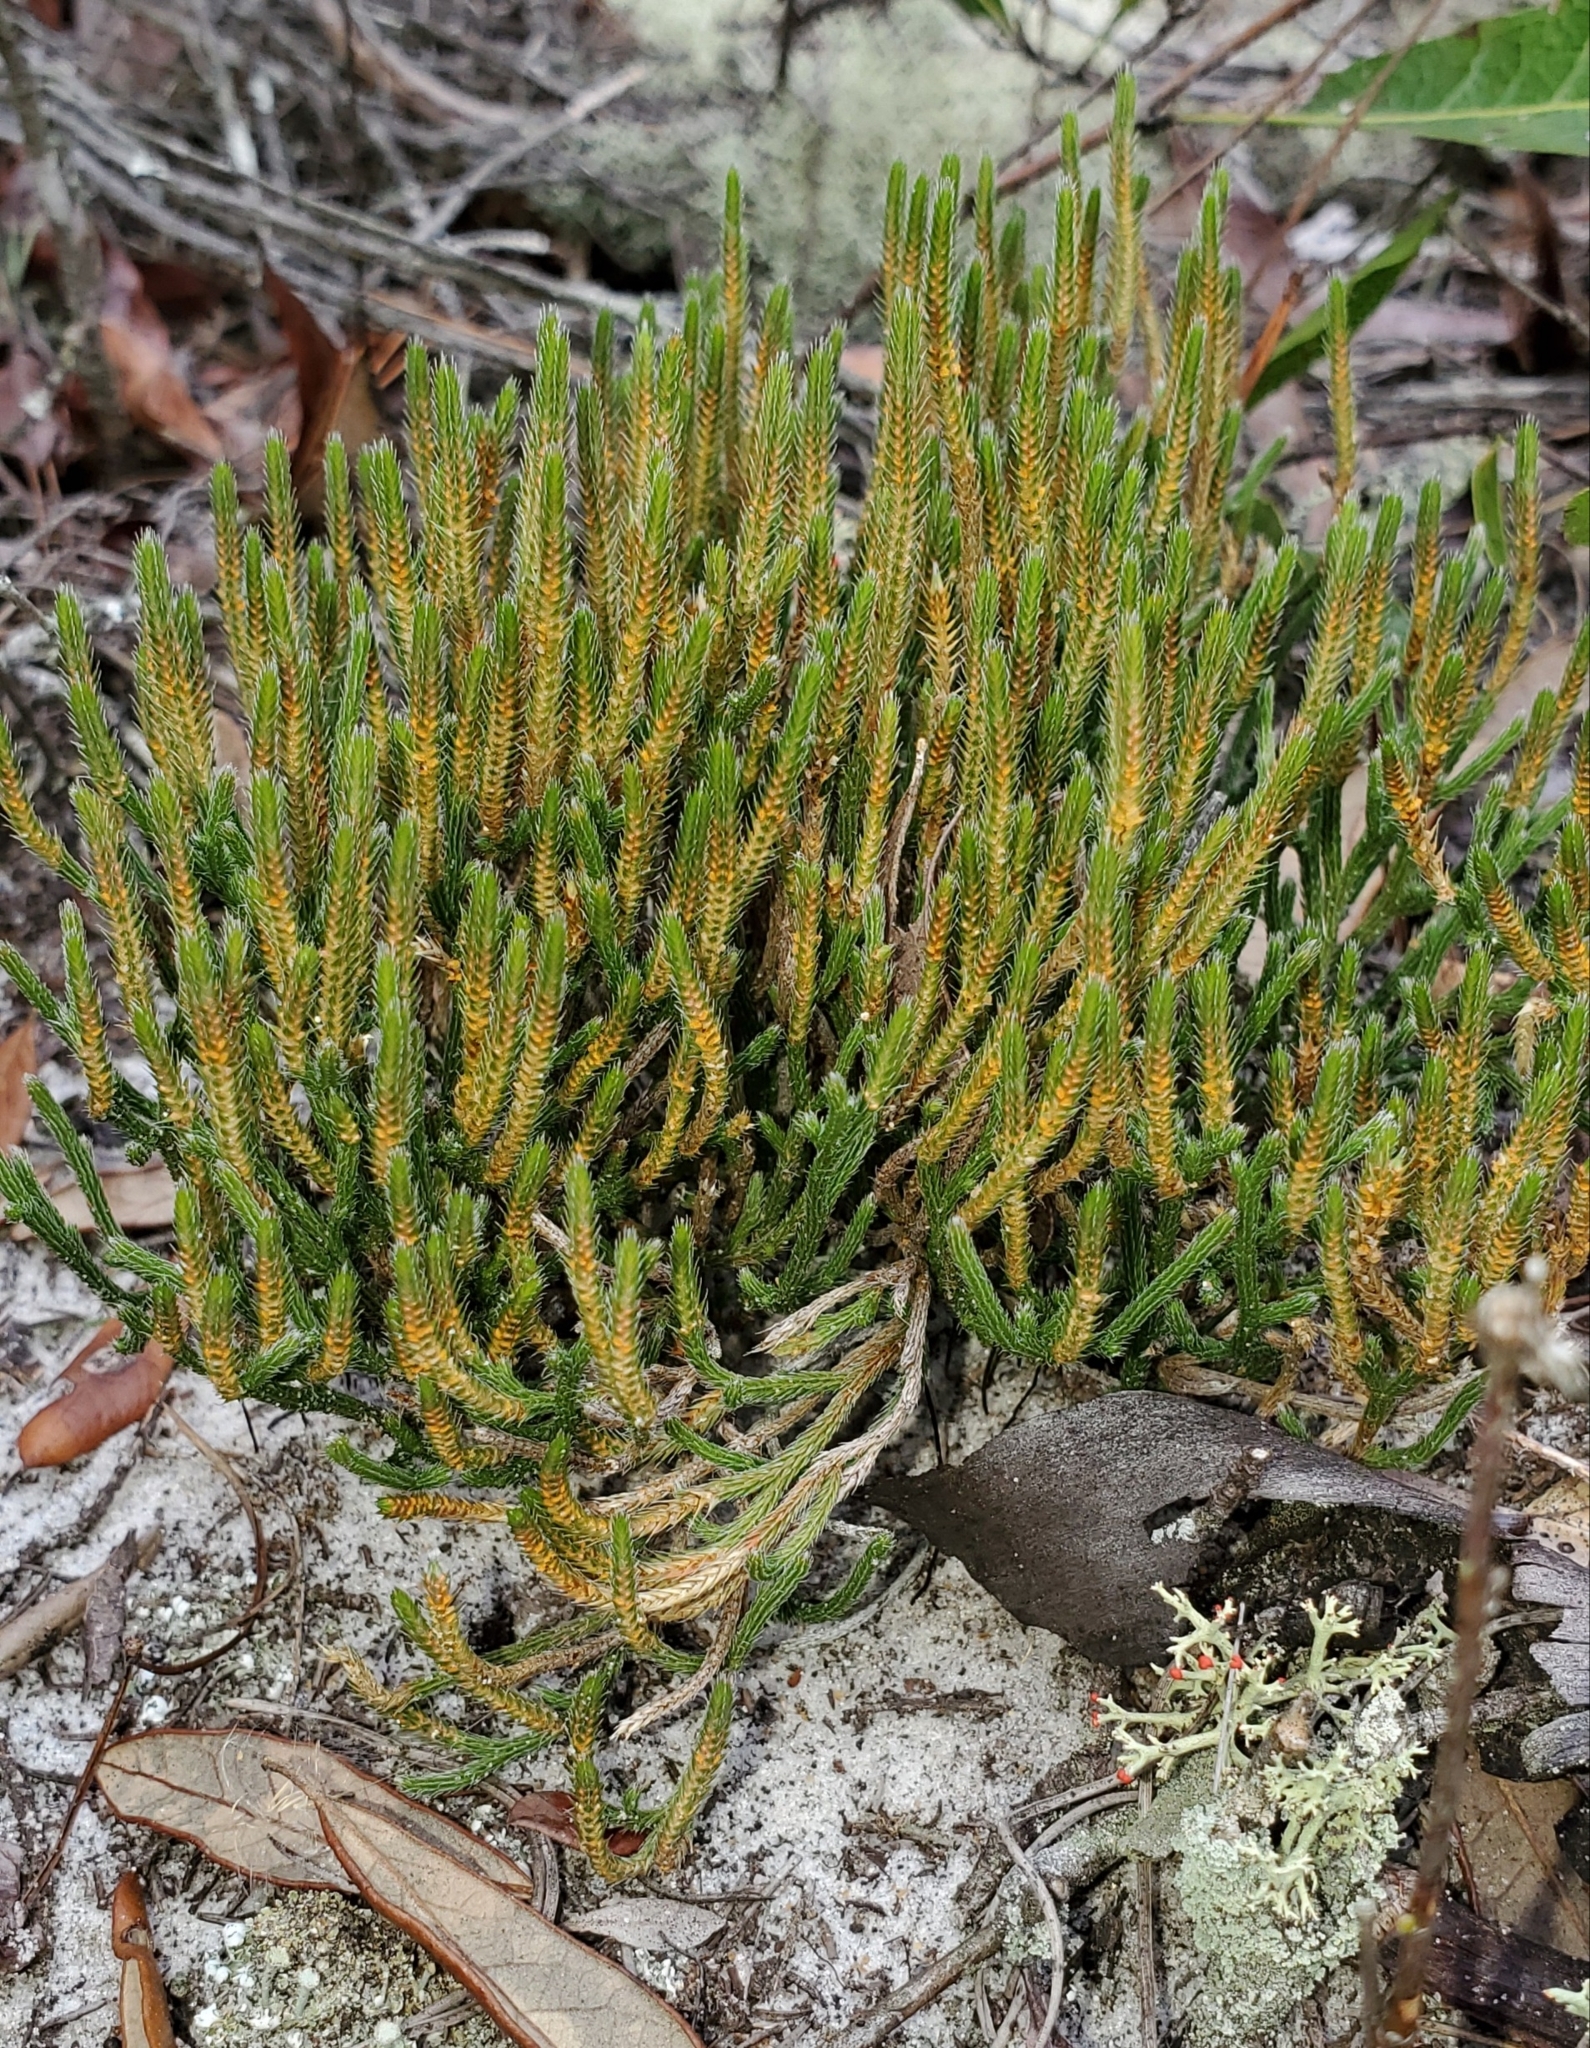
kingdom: Plantae
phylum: Tracheophyta
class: Lycopodiopsida
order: Selaginellales
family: Selaginellaceae
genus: Selaginella
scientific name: Selaginella arenicola
